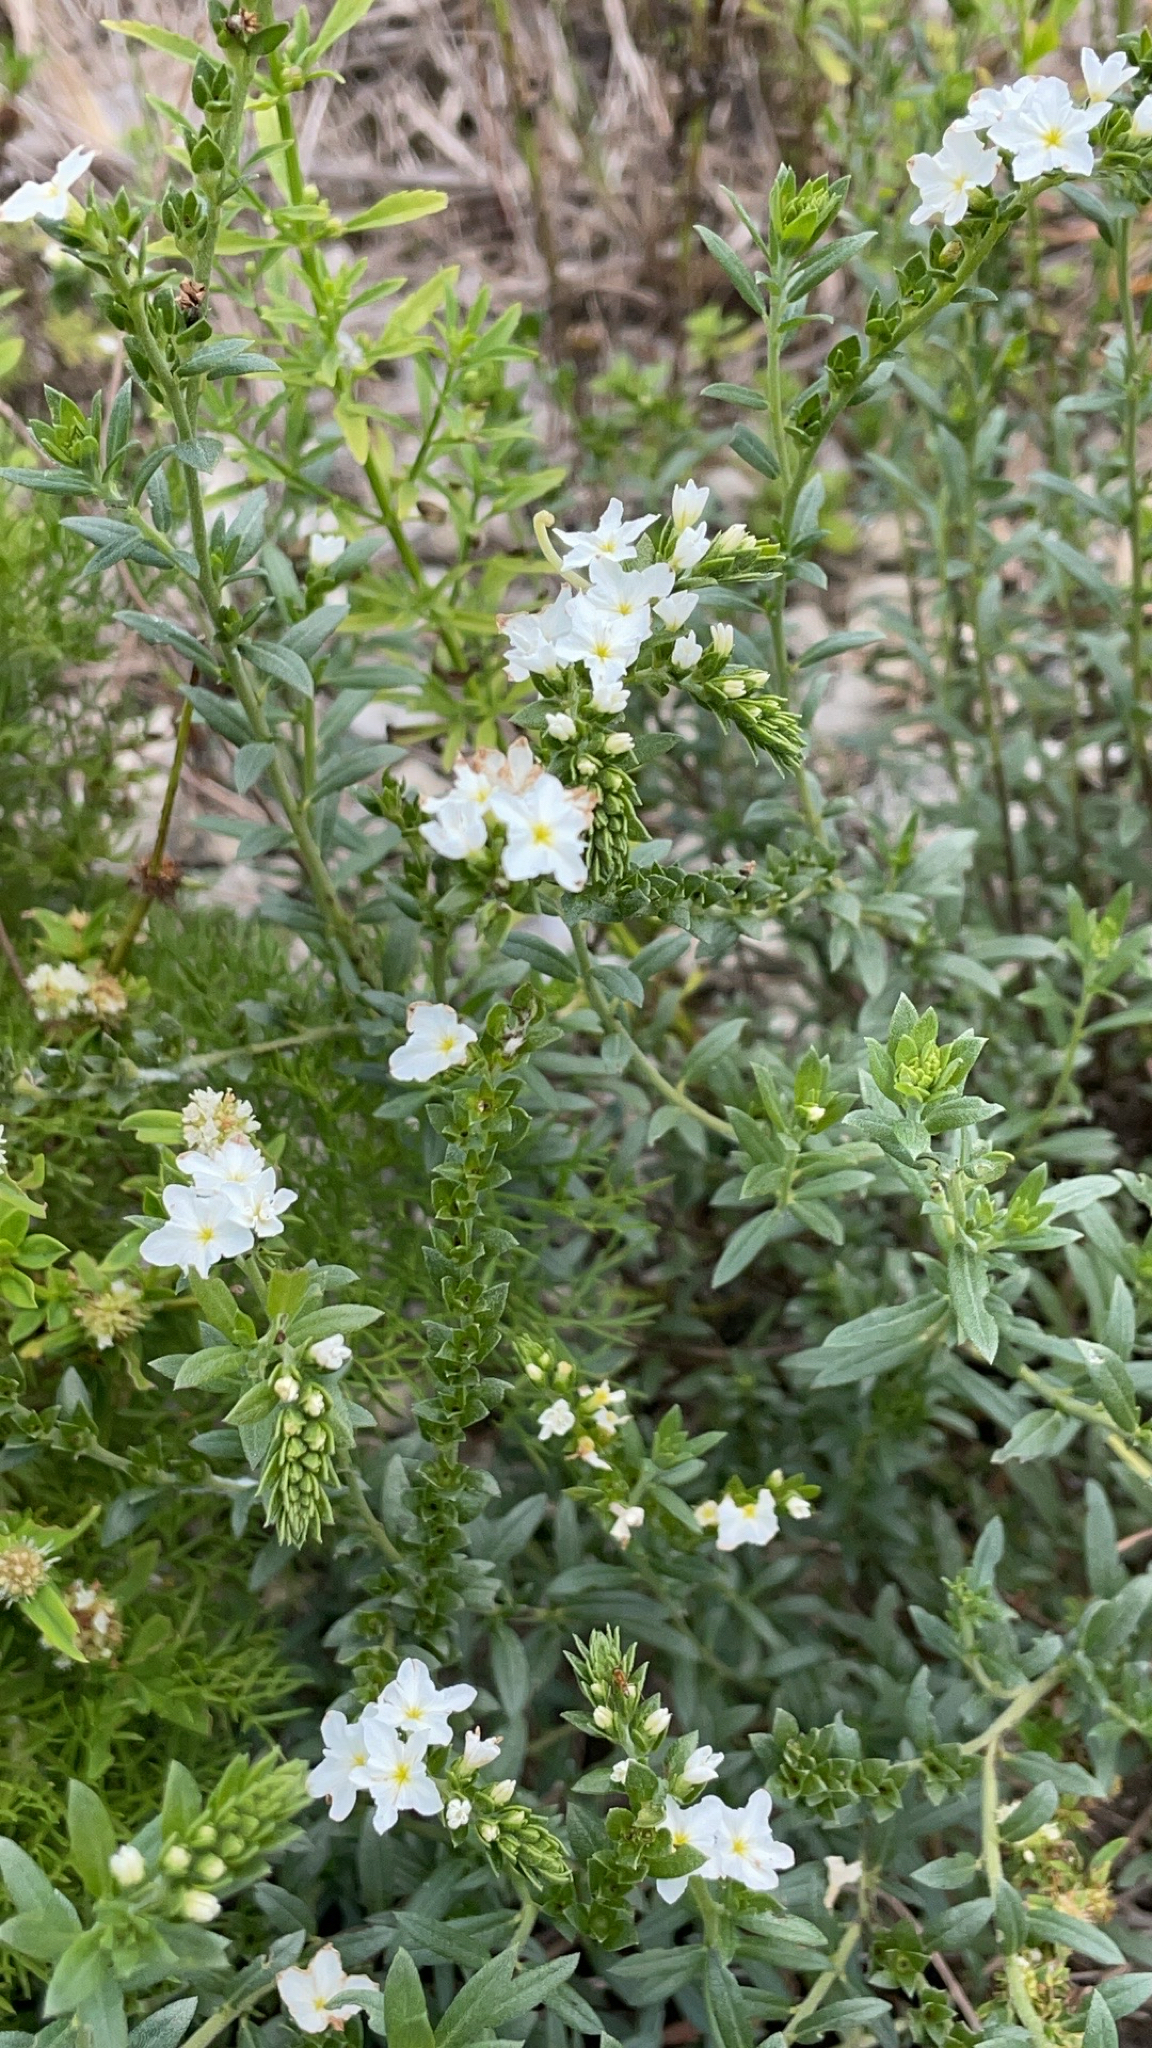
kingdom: Plantae
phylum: Tracheophyta
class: Magnoliopsida
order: Boraginales
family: Heliotropiaceae
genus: Euploca
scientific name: Euploca polyphylla
